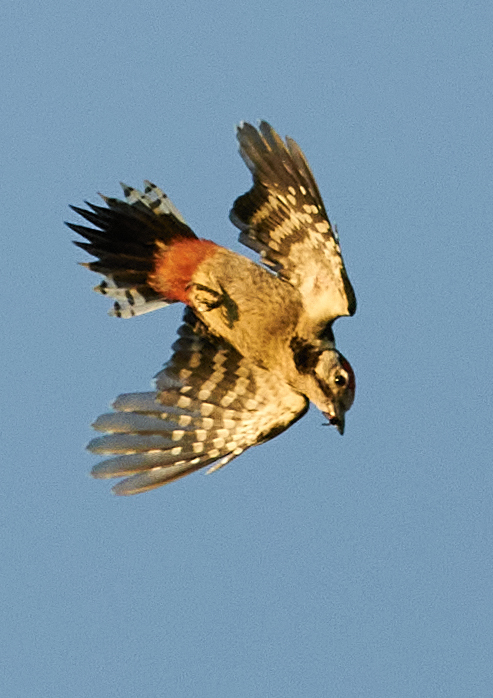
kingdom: Animalia
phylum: Chordata
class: Aves
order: Piciformes
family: Picidae
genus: Dendrocopos
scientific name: Dendrocopos major
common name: Great spotted woodpecker
